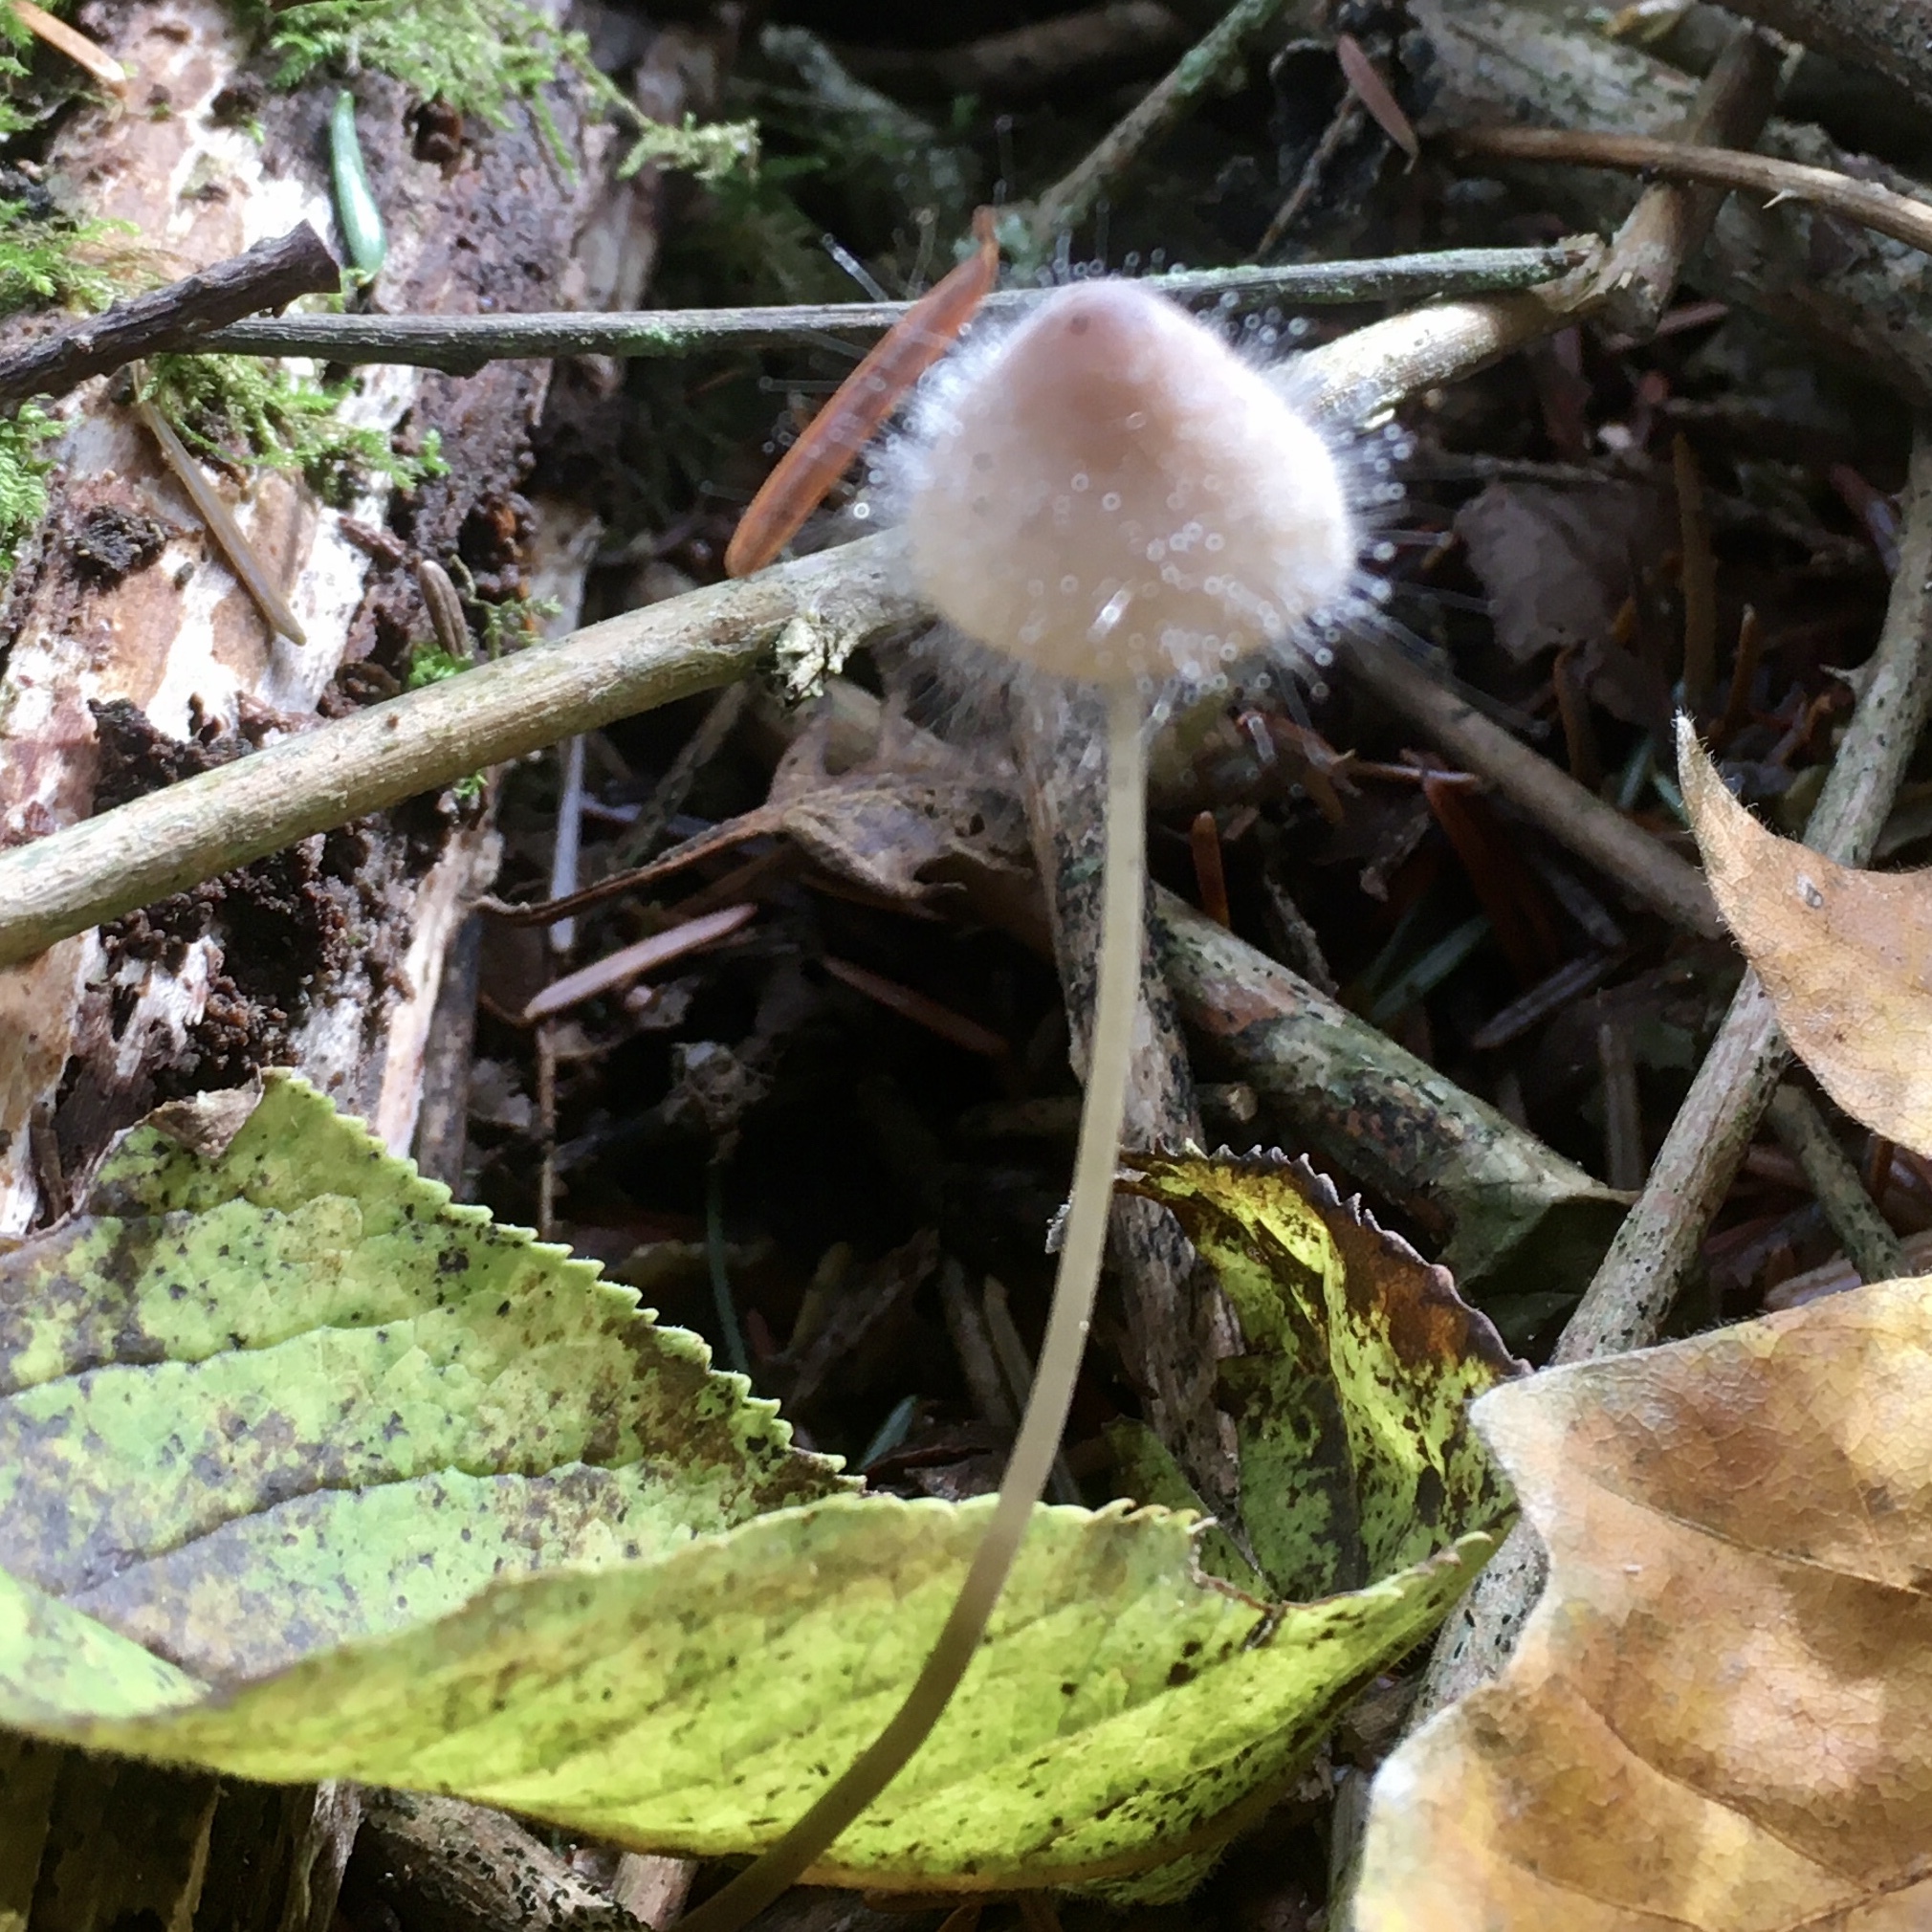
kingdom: Fungi
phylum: Mucoromycota
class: Mucoromycetes
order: Mucorales
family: Phycomycetaceae
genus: Spinellus
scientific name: Spinellus fusiger
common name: Bonnet mould
